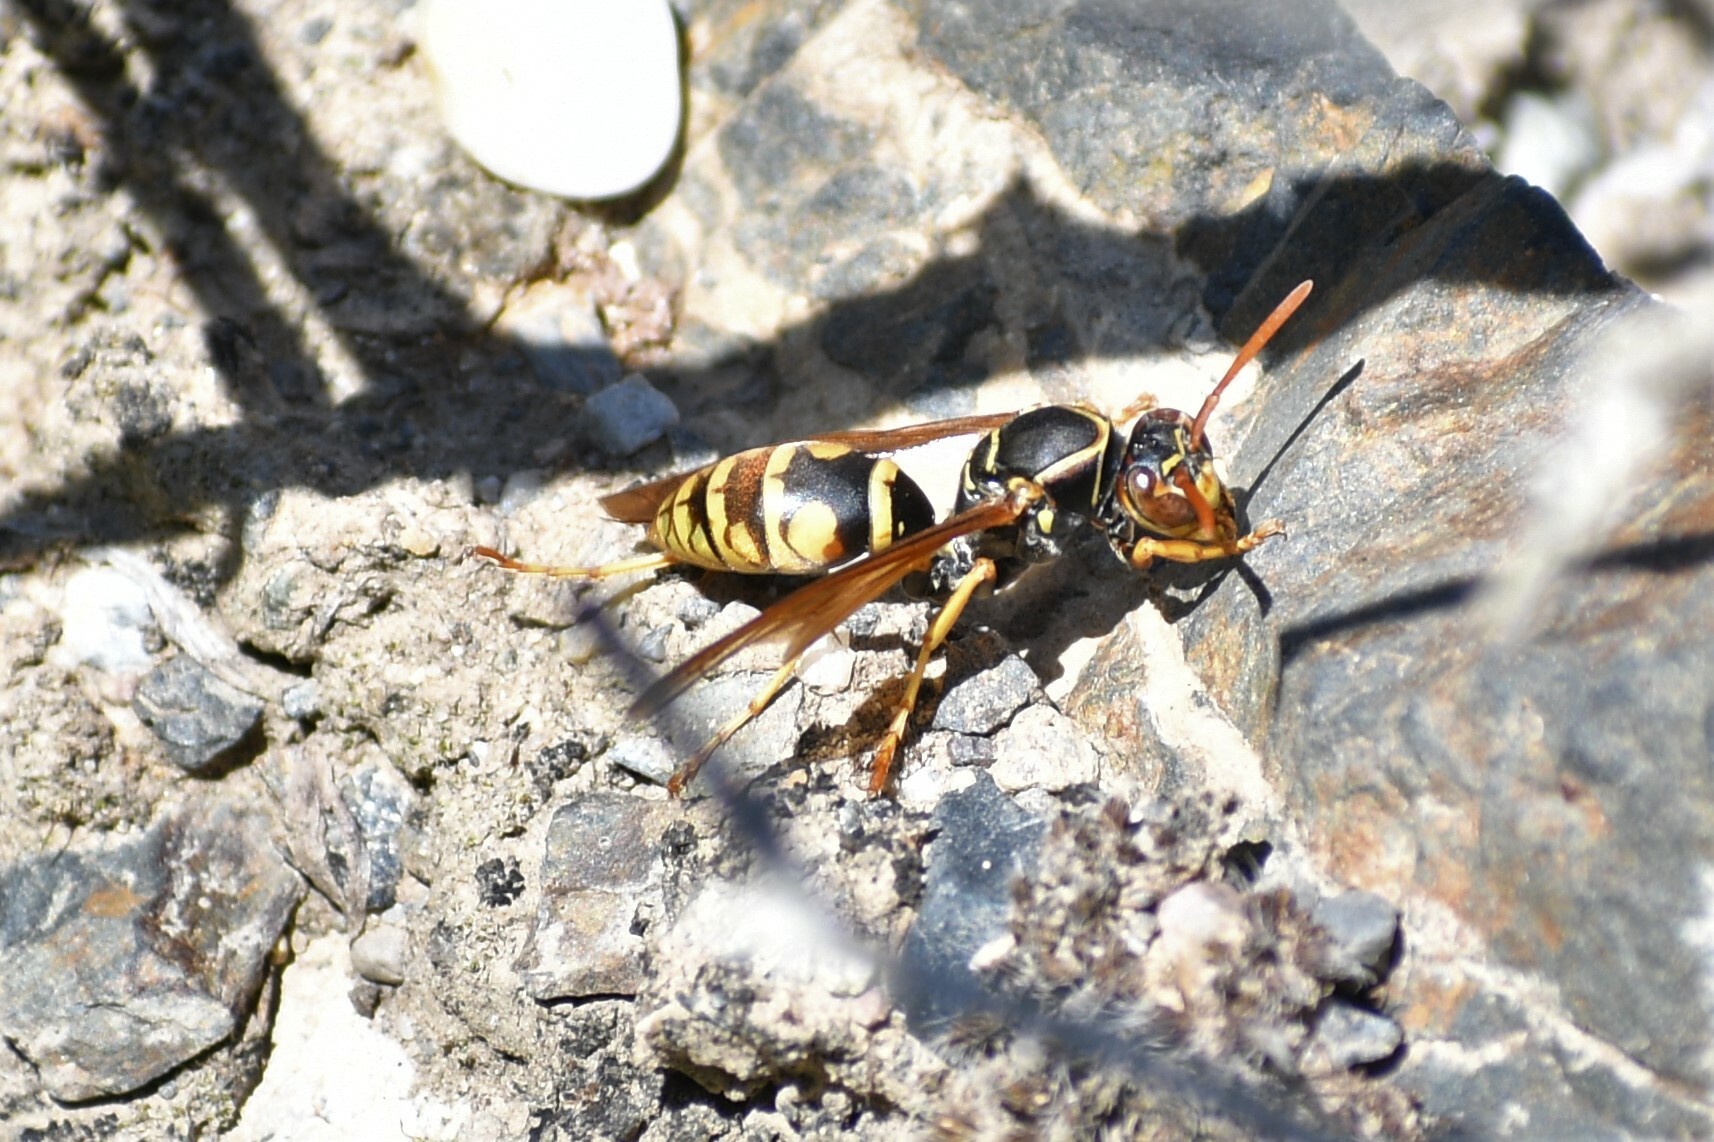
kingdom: Animalia
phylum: Arthropoda
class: Insecta
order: Hymenoptera
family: Eumenidae
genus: Polistes
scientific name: Polistes aurifer
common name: Paper wasp
